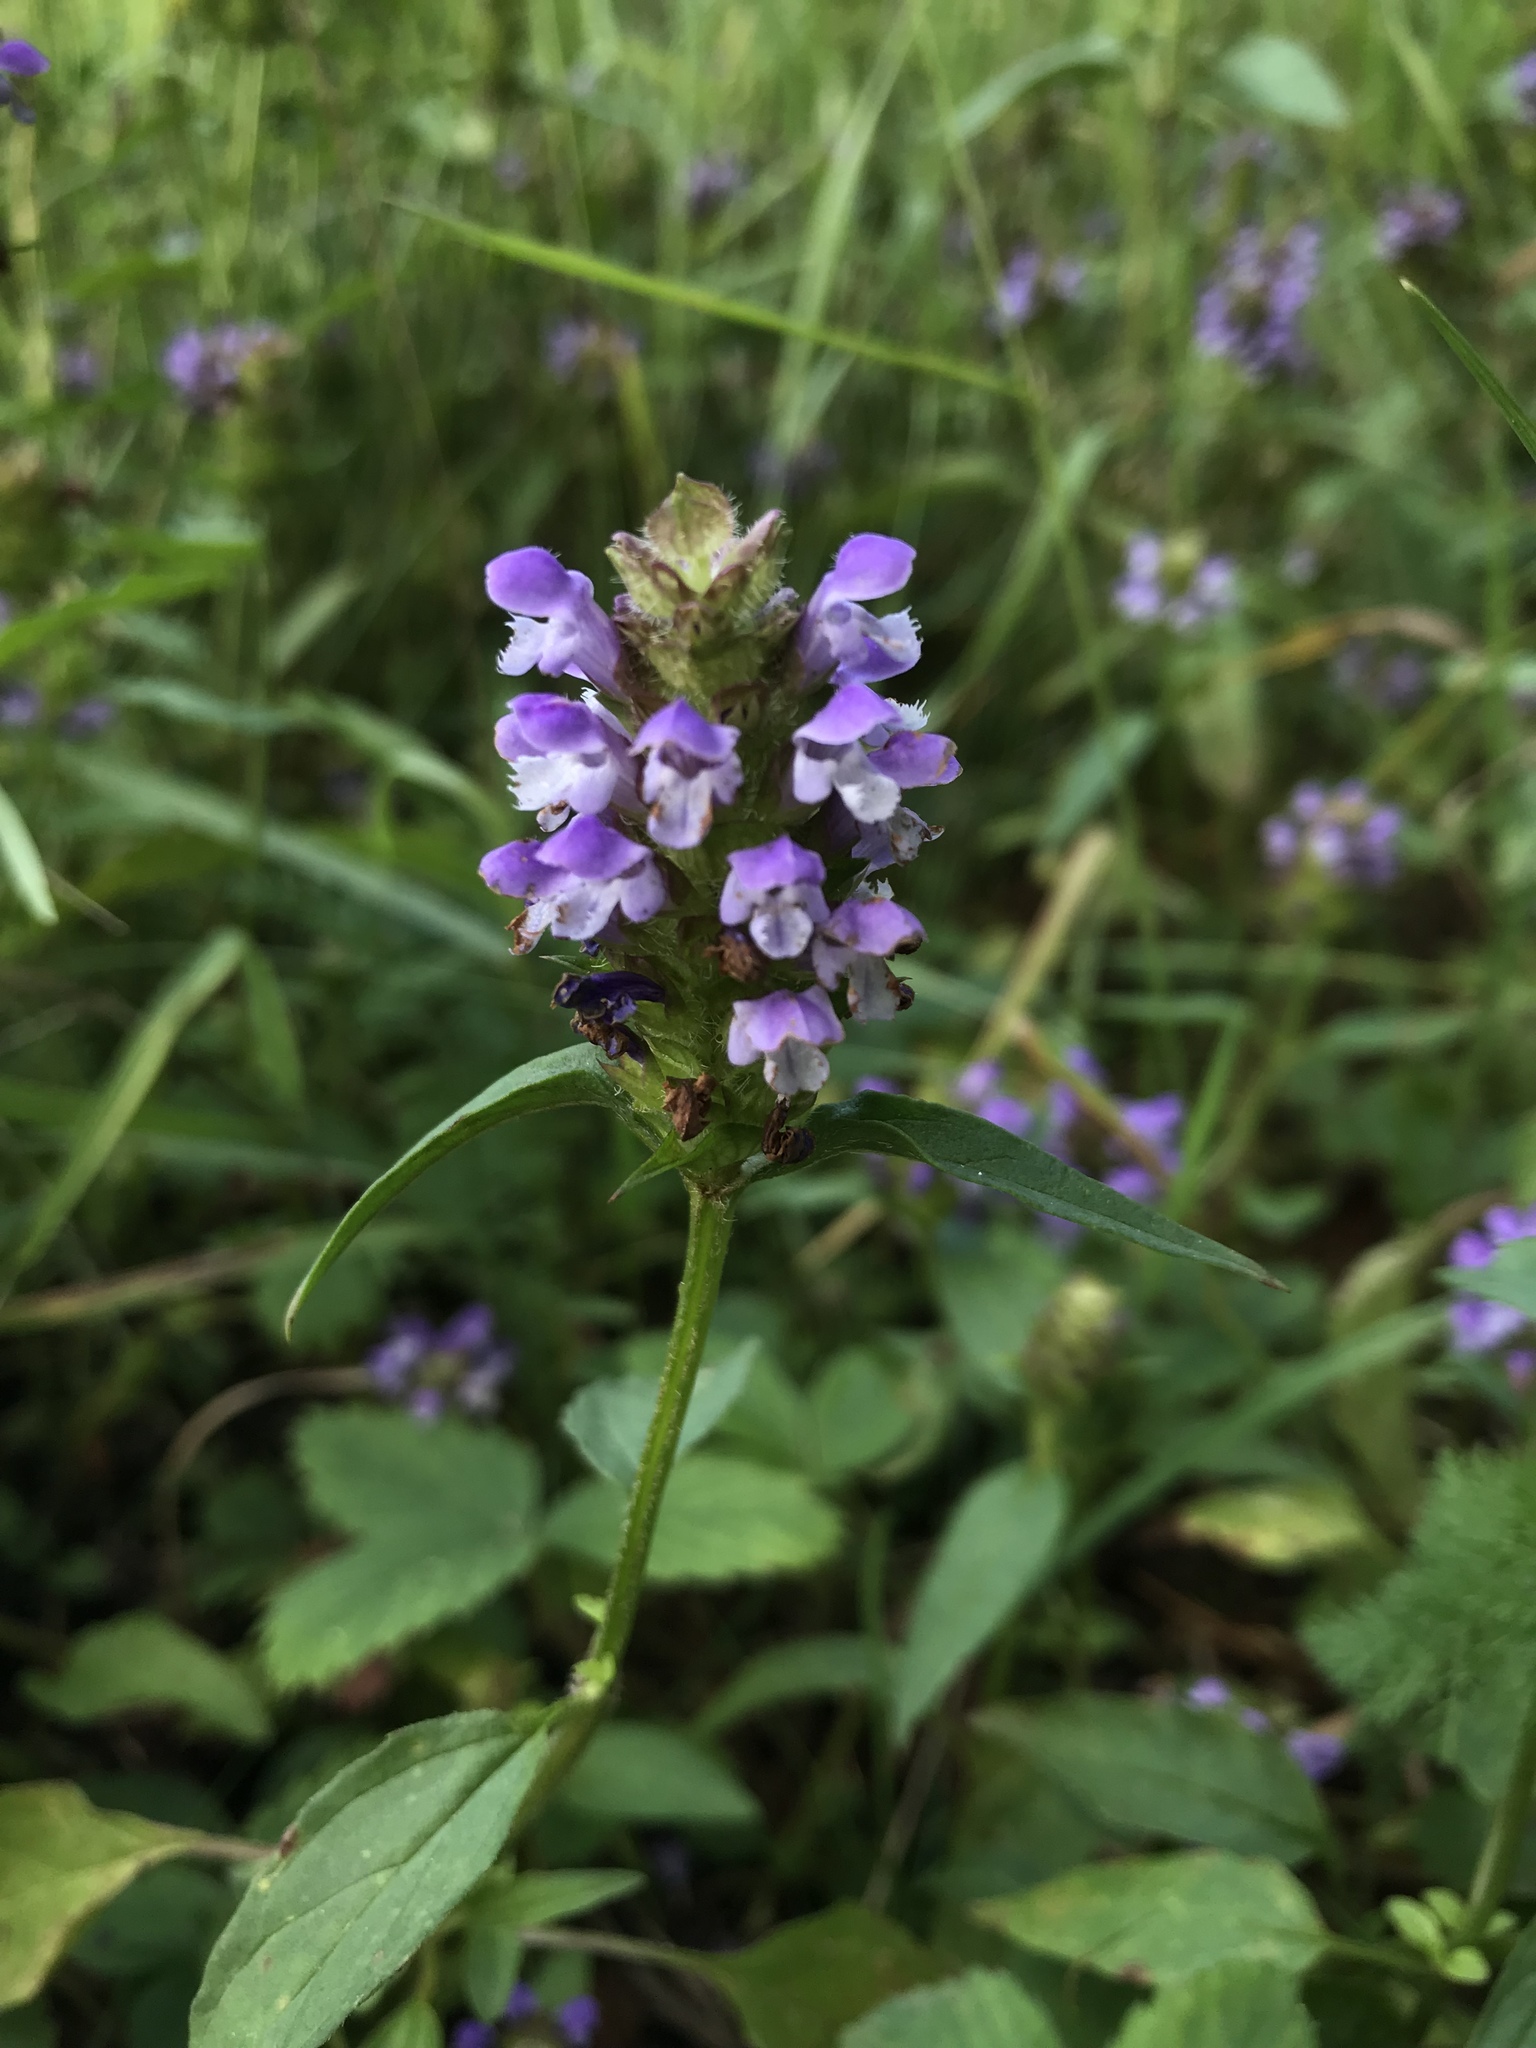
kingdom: Plantae
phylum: Tracheophyta
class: Magnoliopsida
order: Lamiales
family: Lamiaceae
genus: Prunella
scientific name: Prunella vulgaris
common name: Heal-all
